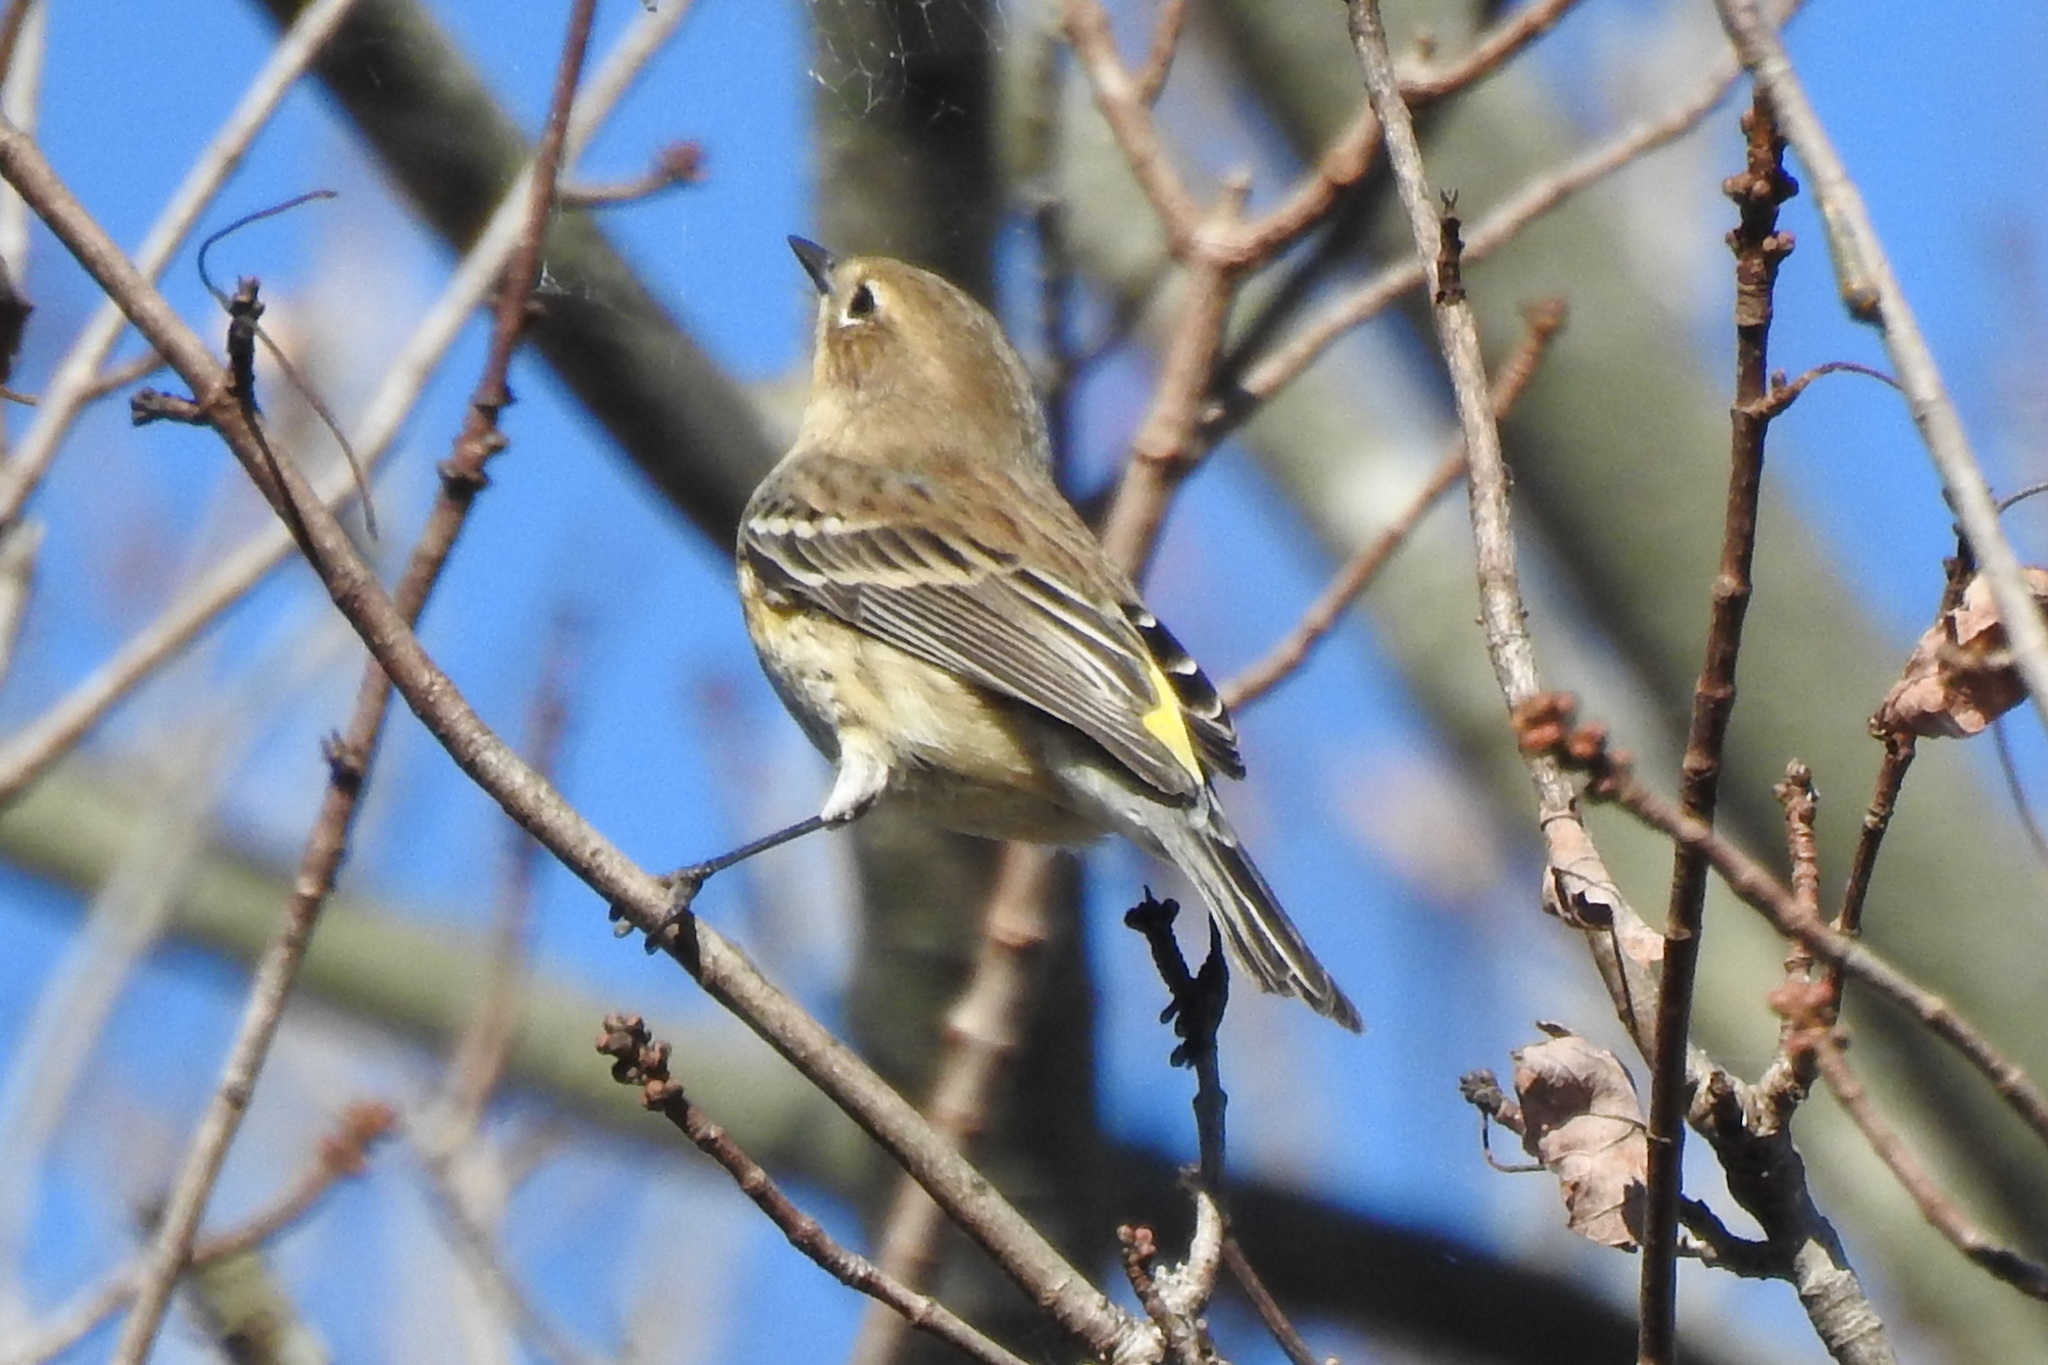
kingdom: Animalia
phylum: Chordata
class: Aves
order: Passeriformes
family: Parulidae
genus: Setophaga
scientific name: Setophaga coronata
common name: Myrtle warbler
